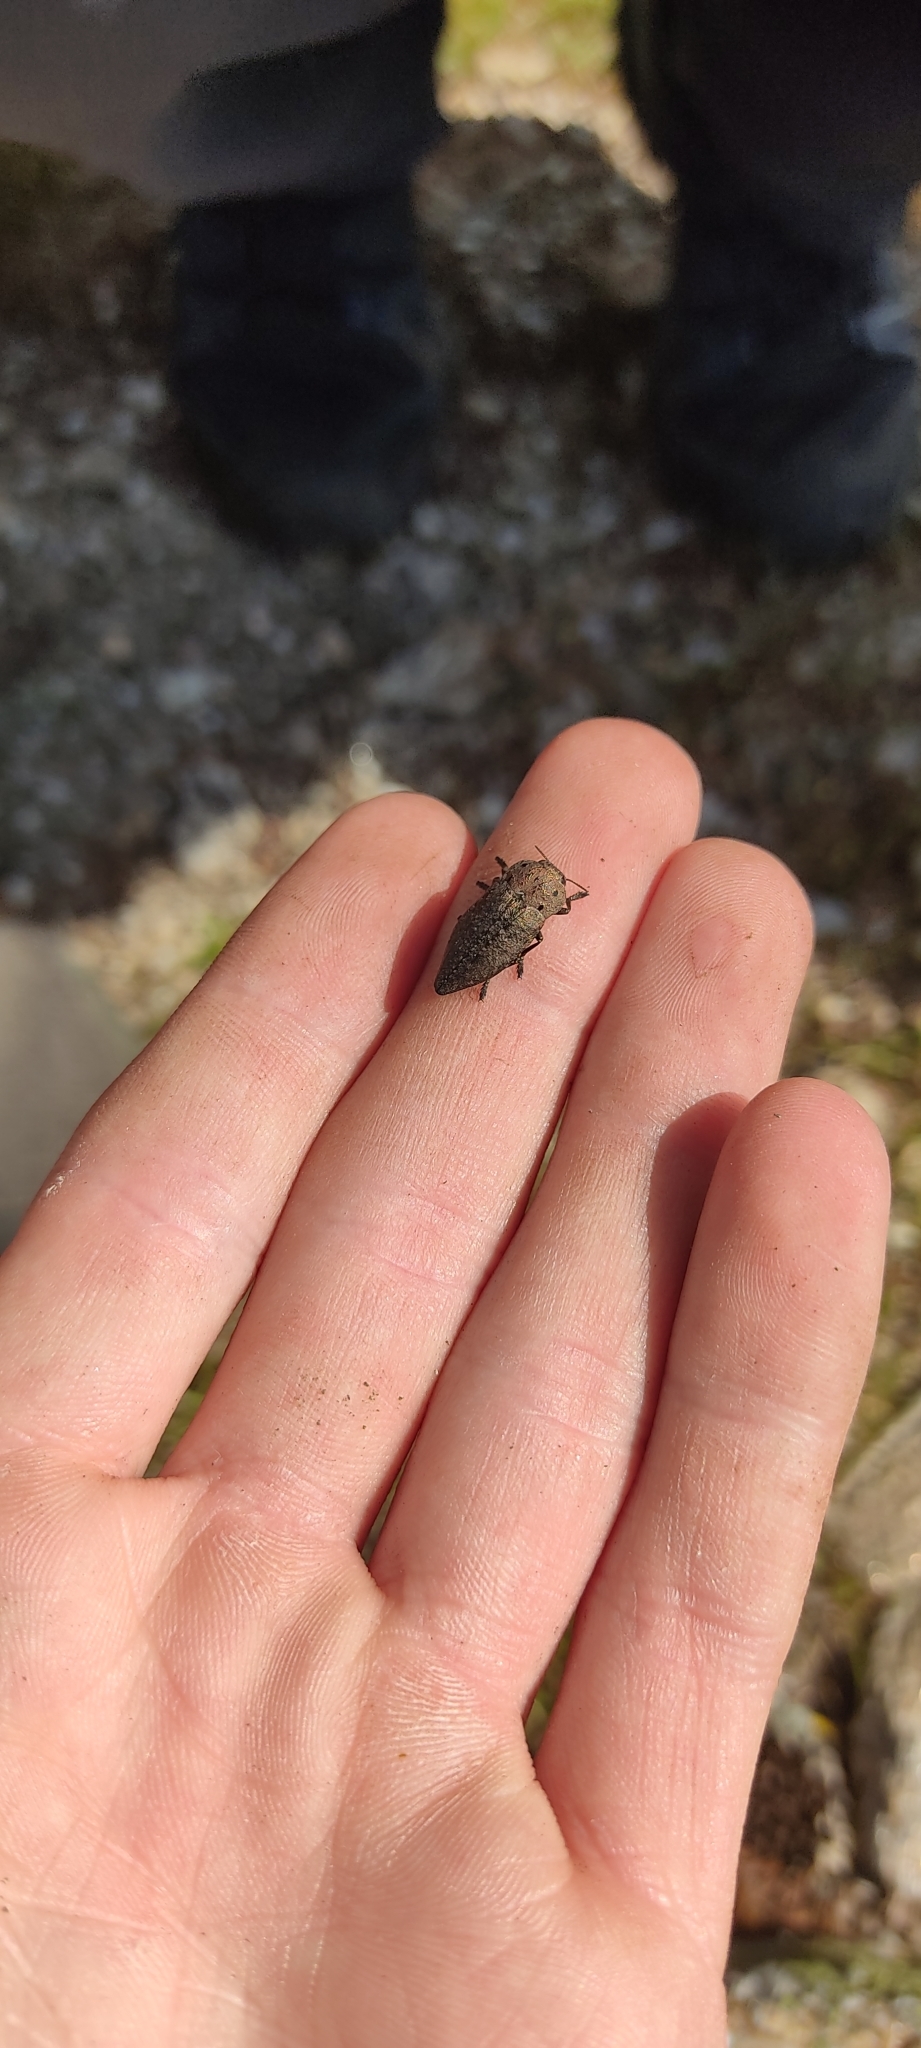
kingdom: Animalia
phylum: Arthropoda
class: Insecta
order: Coleoptera
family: Buprestidae
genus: Capnodis
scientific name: Capnodis tenebricosa
